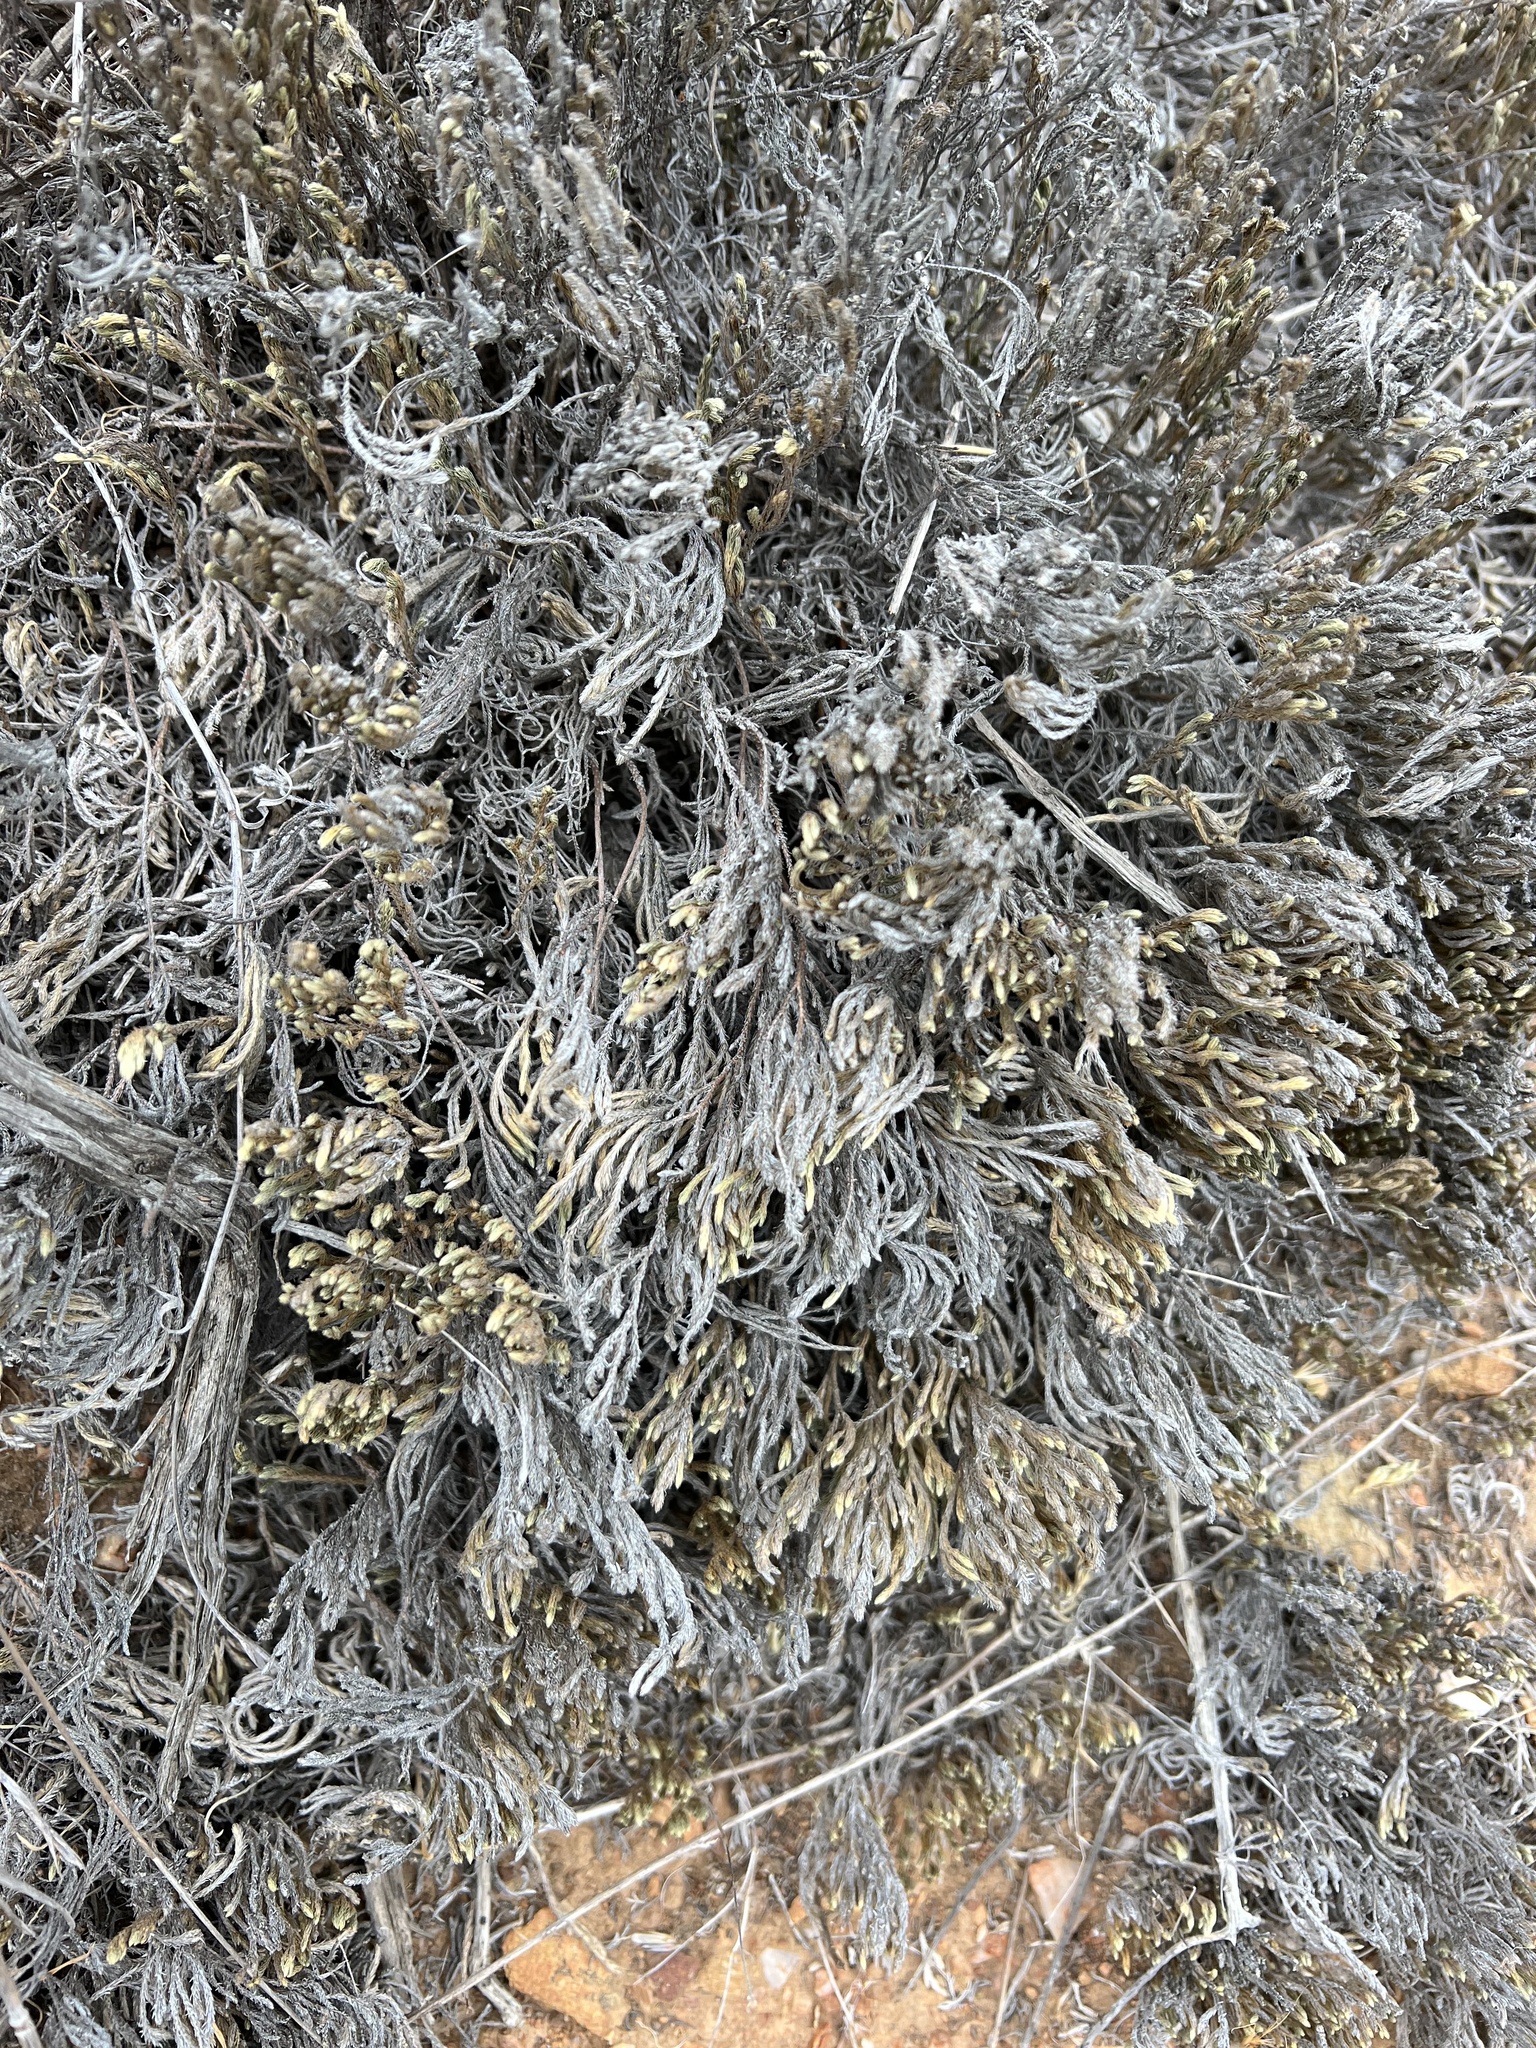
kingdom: Plantae
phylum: Tracheophyta
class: Lycopodiopsida
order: Selaginellales
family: Selaginellaceae
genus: Selaginella
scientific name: Selaginella bigelovii
